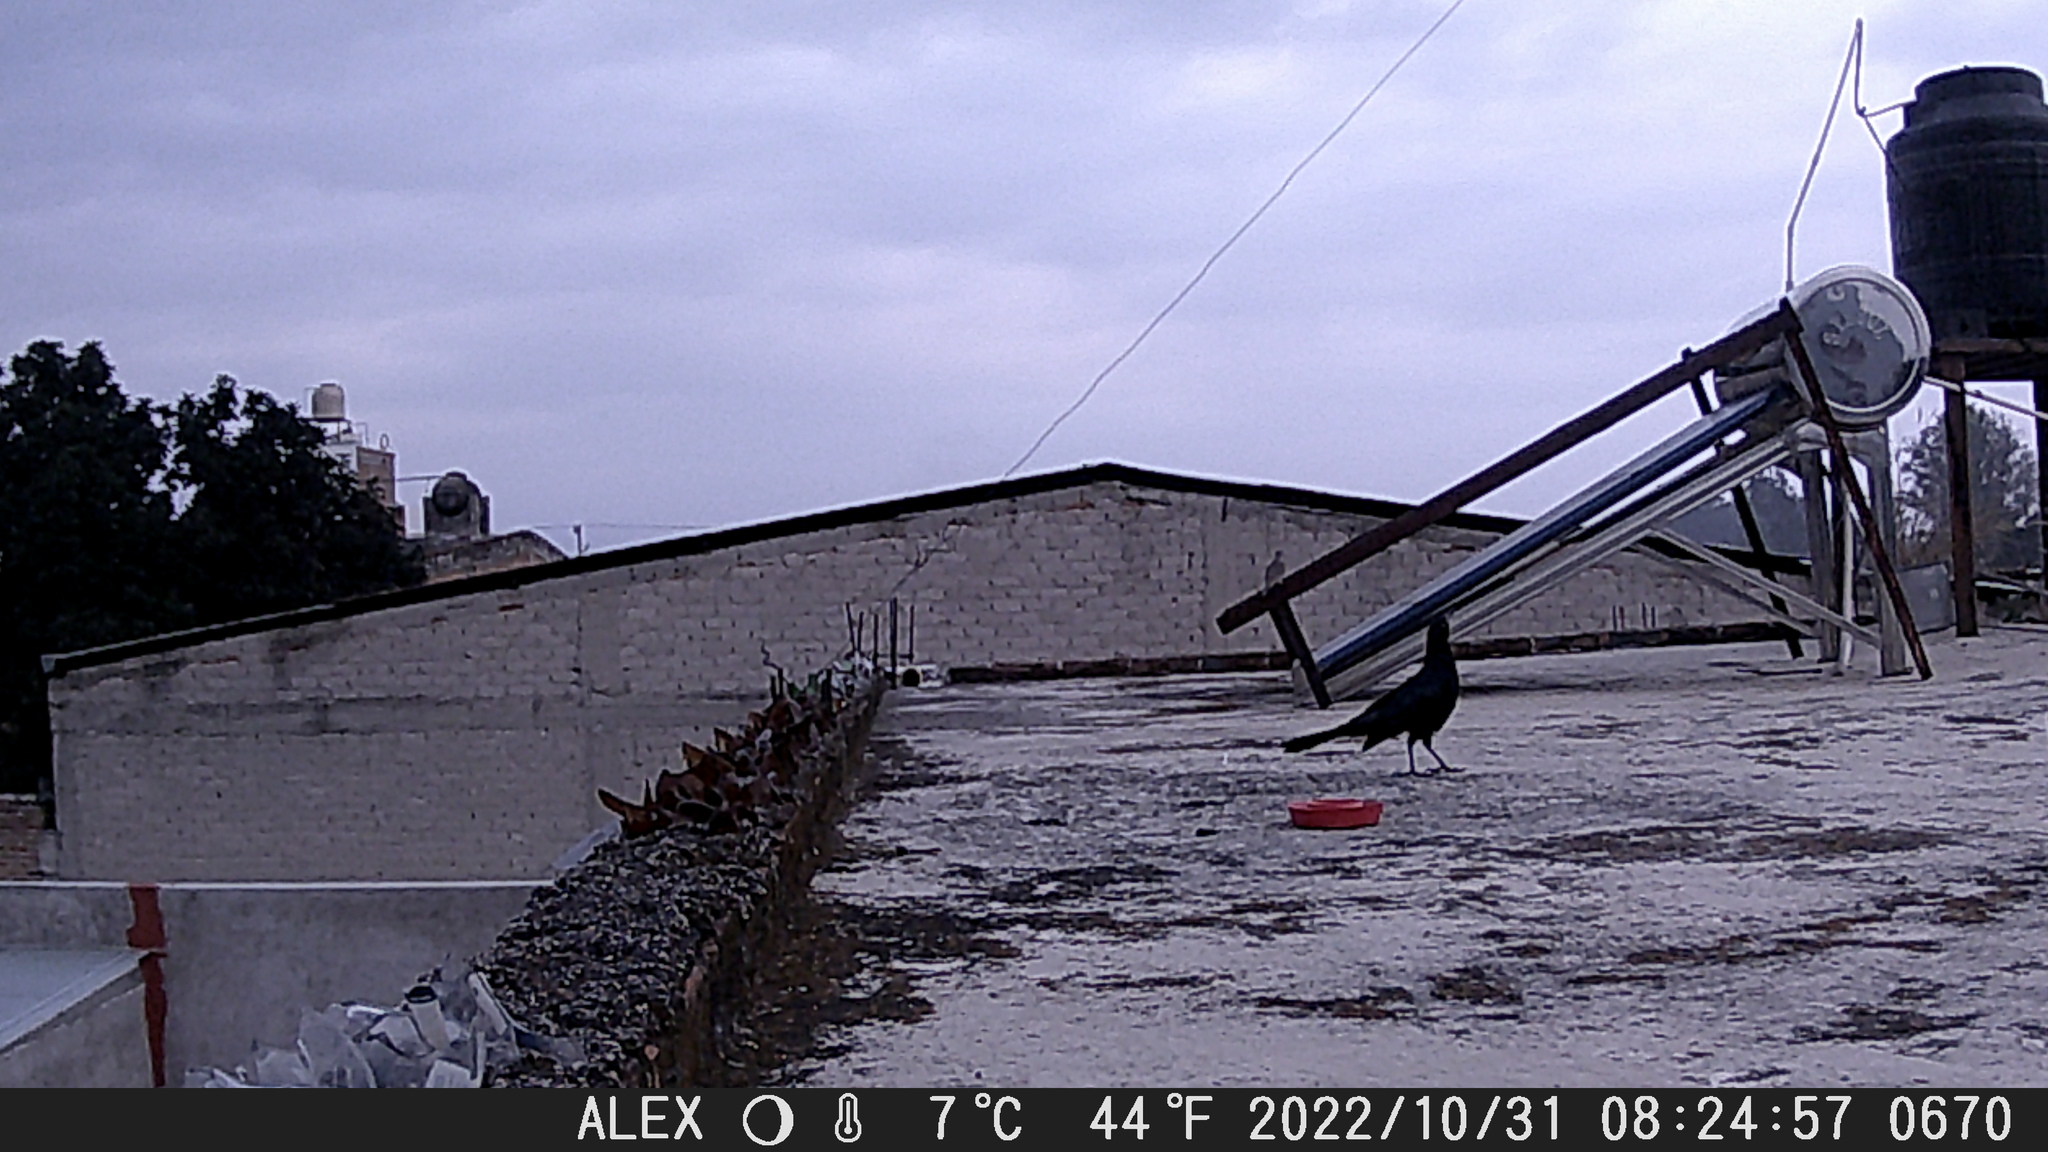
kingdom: Animalia
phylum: Chordata
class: Aves
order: Passeriformes
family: Icteridae
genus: Quiscalus
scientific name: Quiscalus mexicanus
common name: Great-tailed grackle
